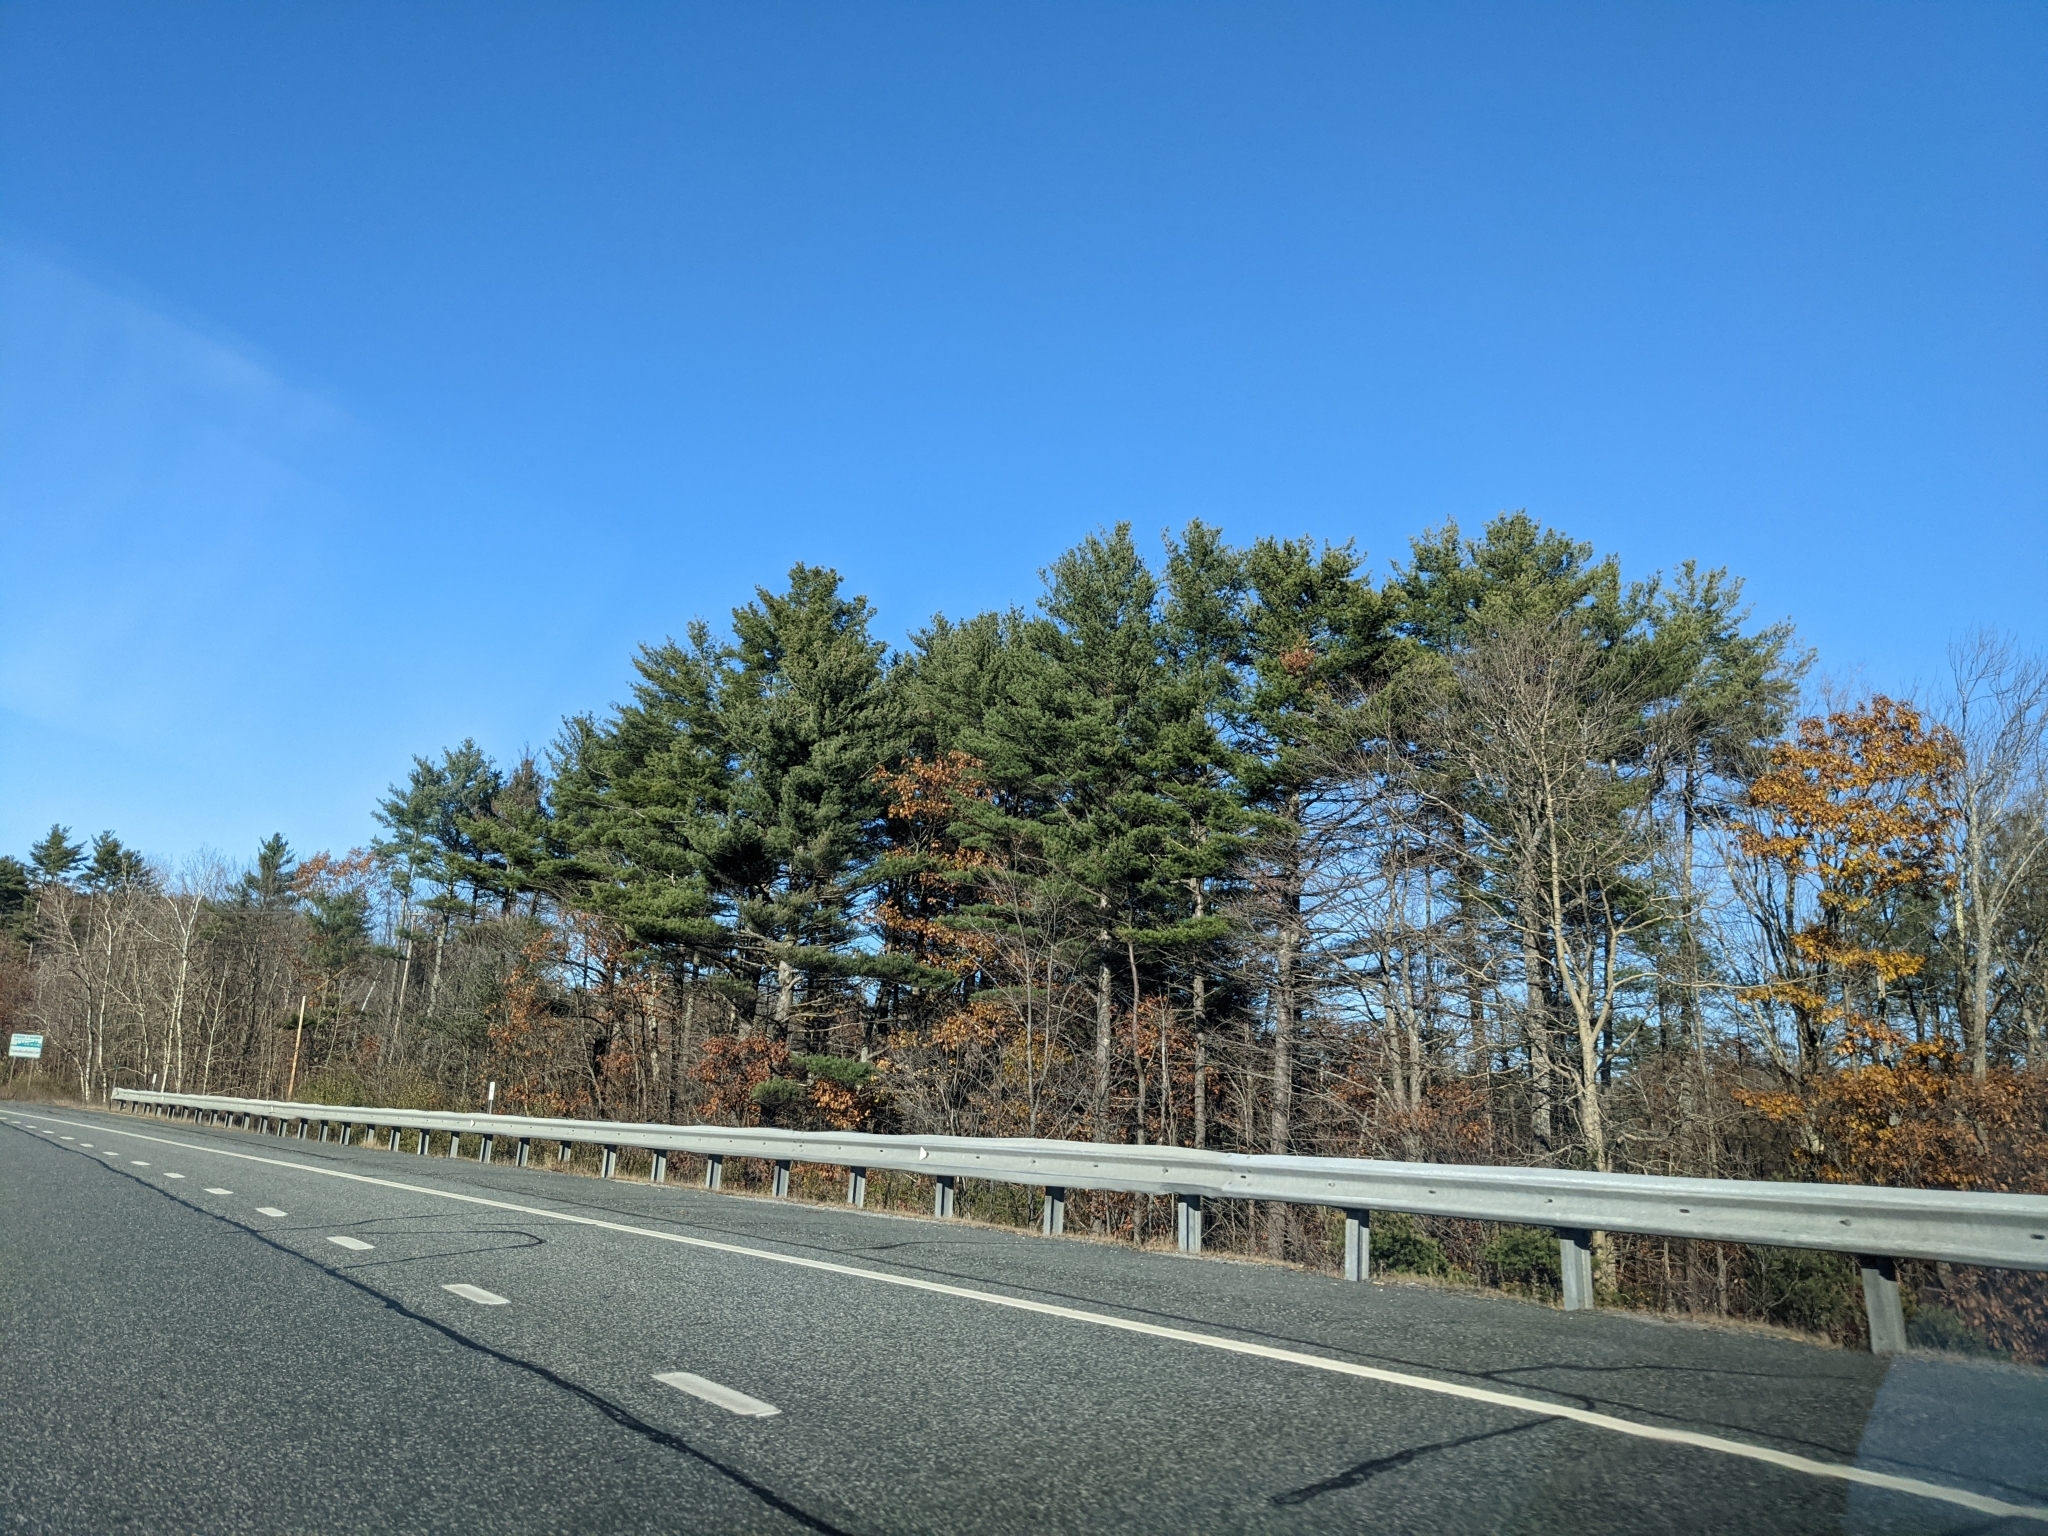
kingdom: Plantae
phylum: Tracheophyta
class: Pinopsida
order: Pinales
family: Pinaceae
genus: Pinus
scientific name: Pinus strobus
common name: Weymouth pine
